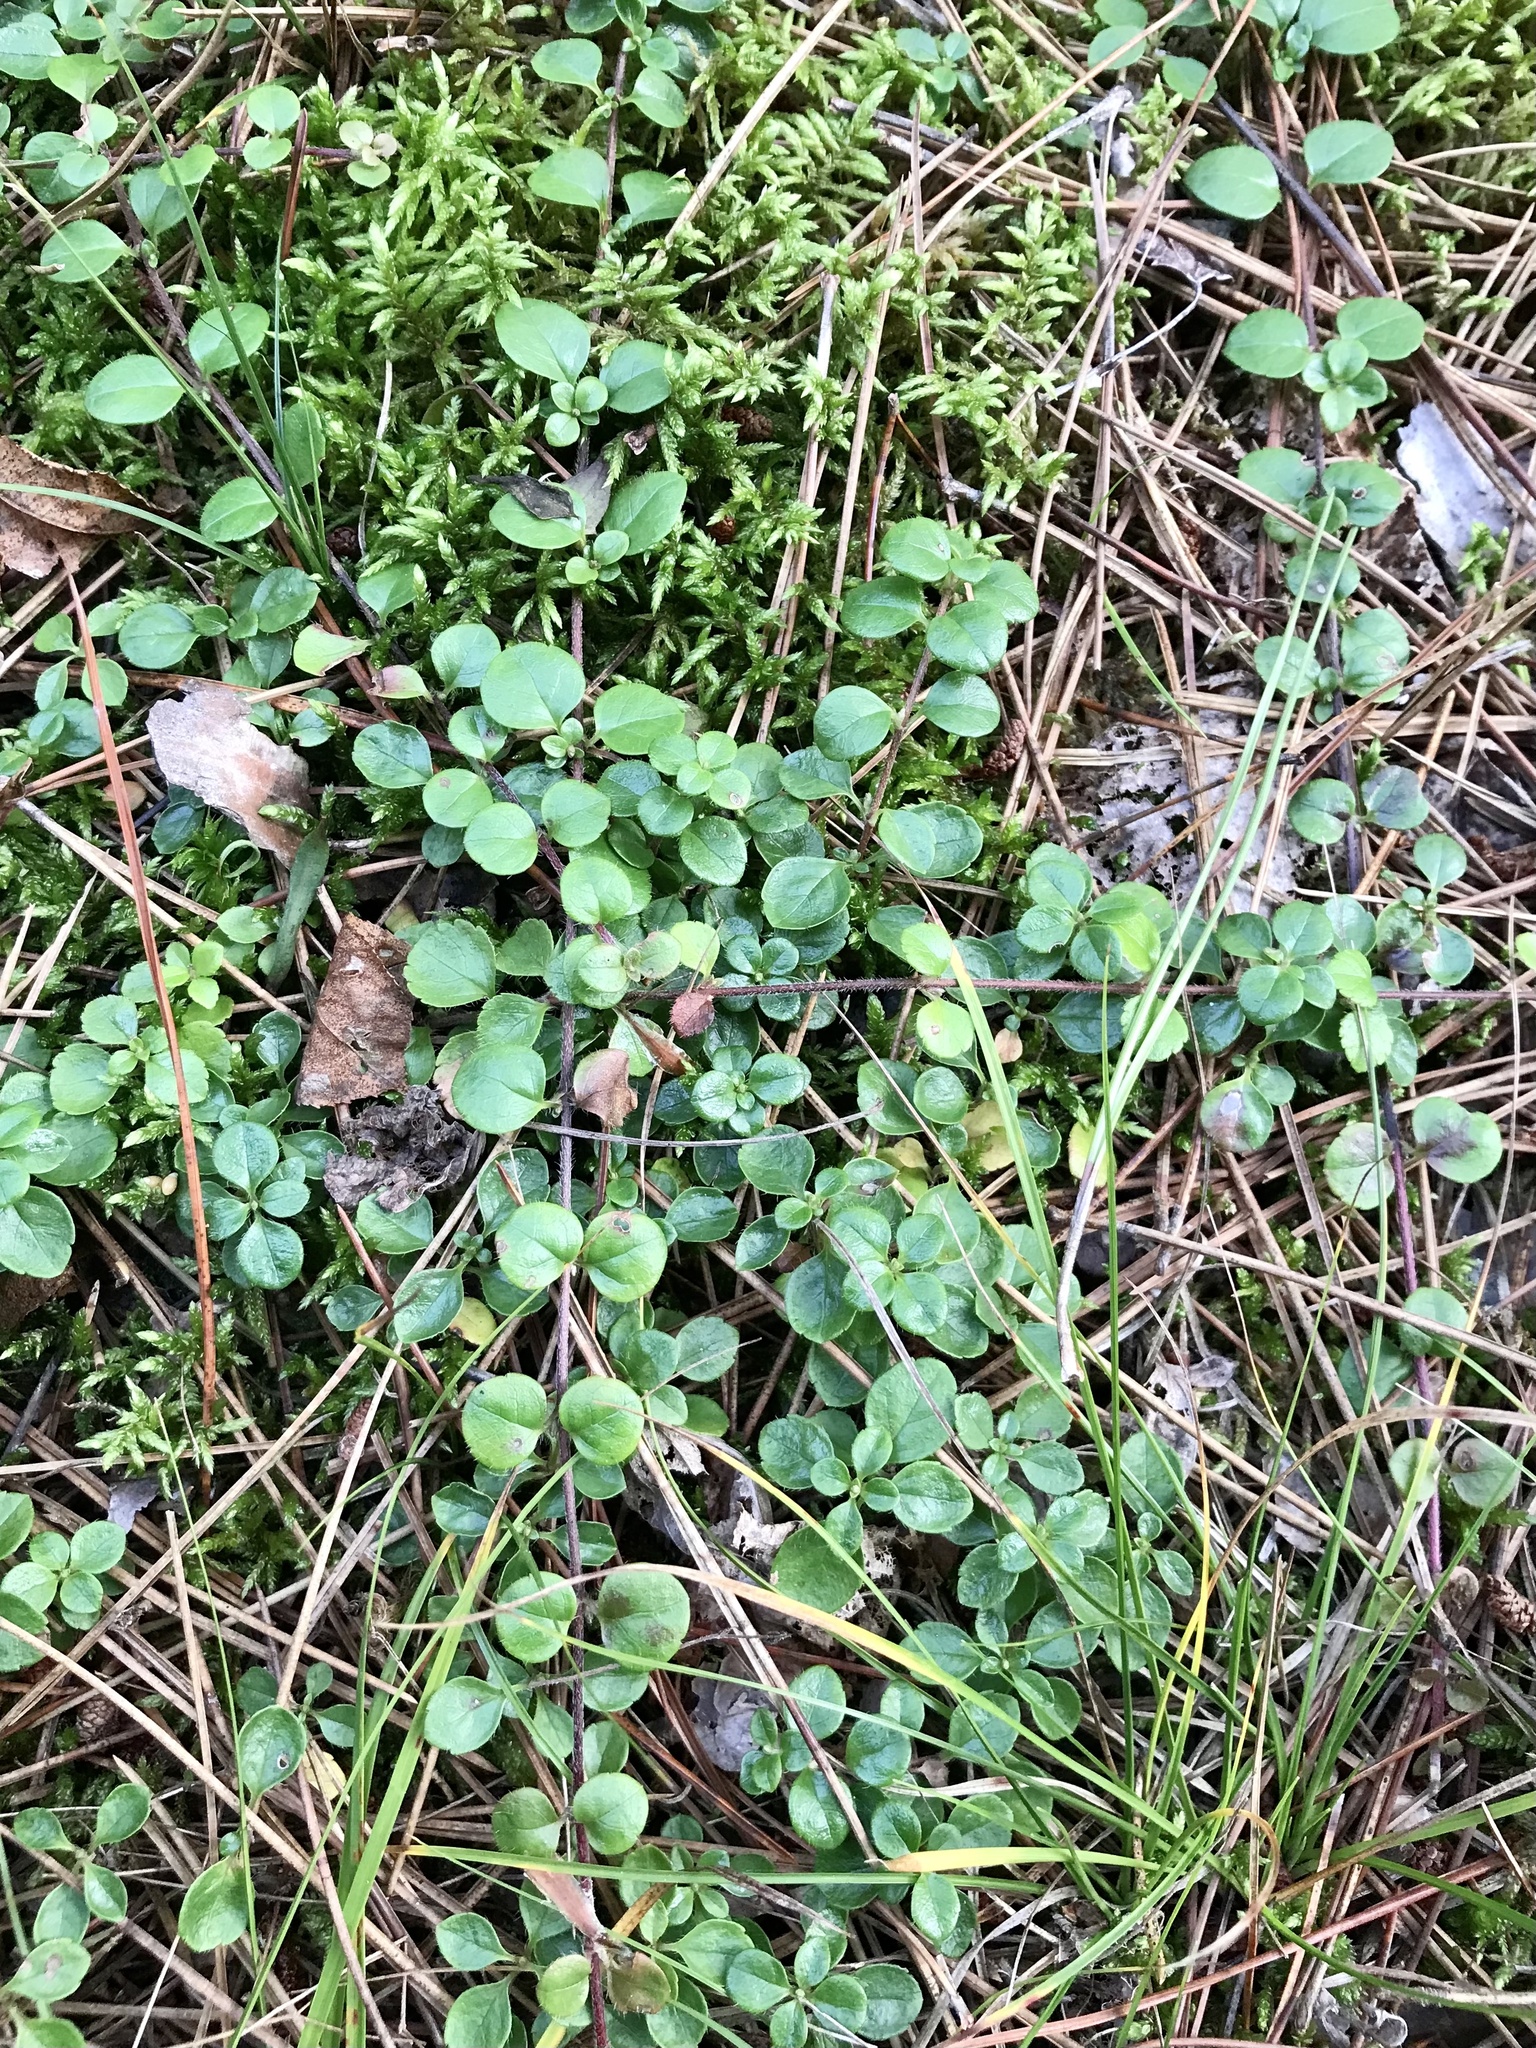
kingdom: Plantae
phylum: Tracheophyta
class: Magnoliopsida
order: Dipsacales
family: Caprifoliaceae
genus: Linnaea
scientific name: Linnaea borealis
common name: Twinflower
